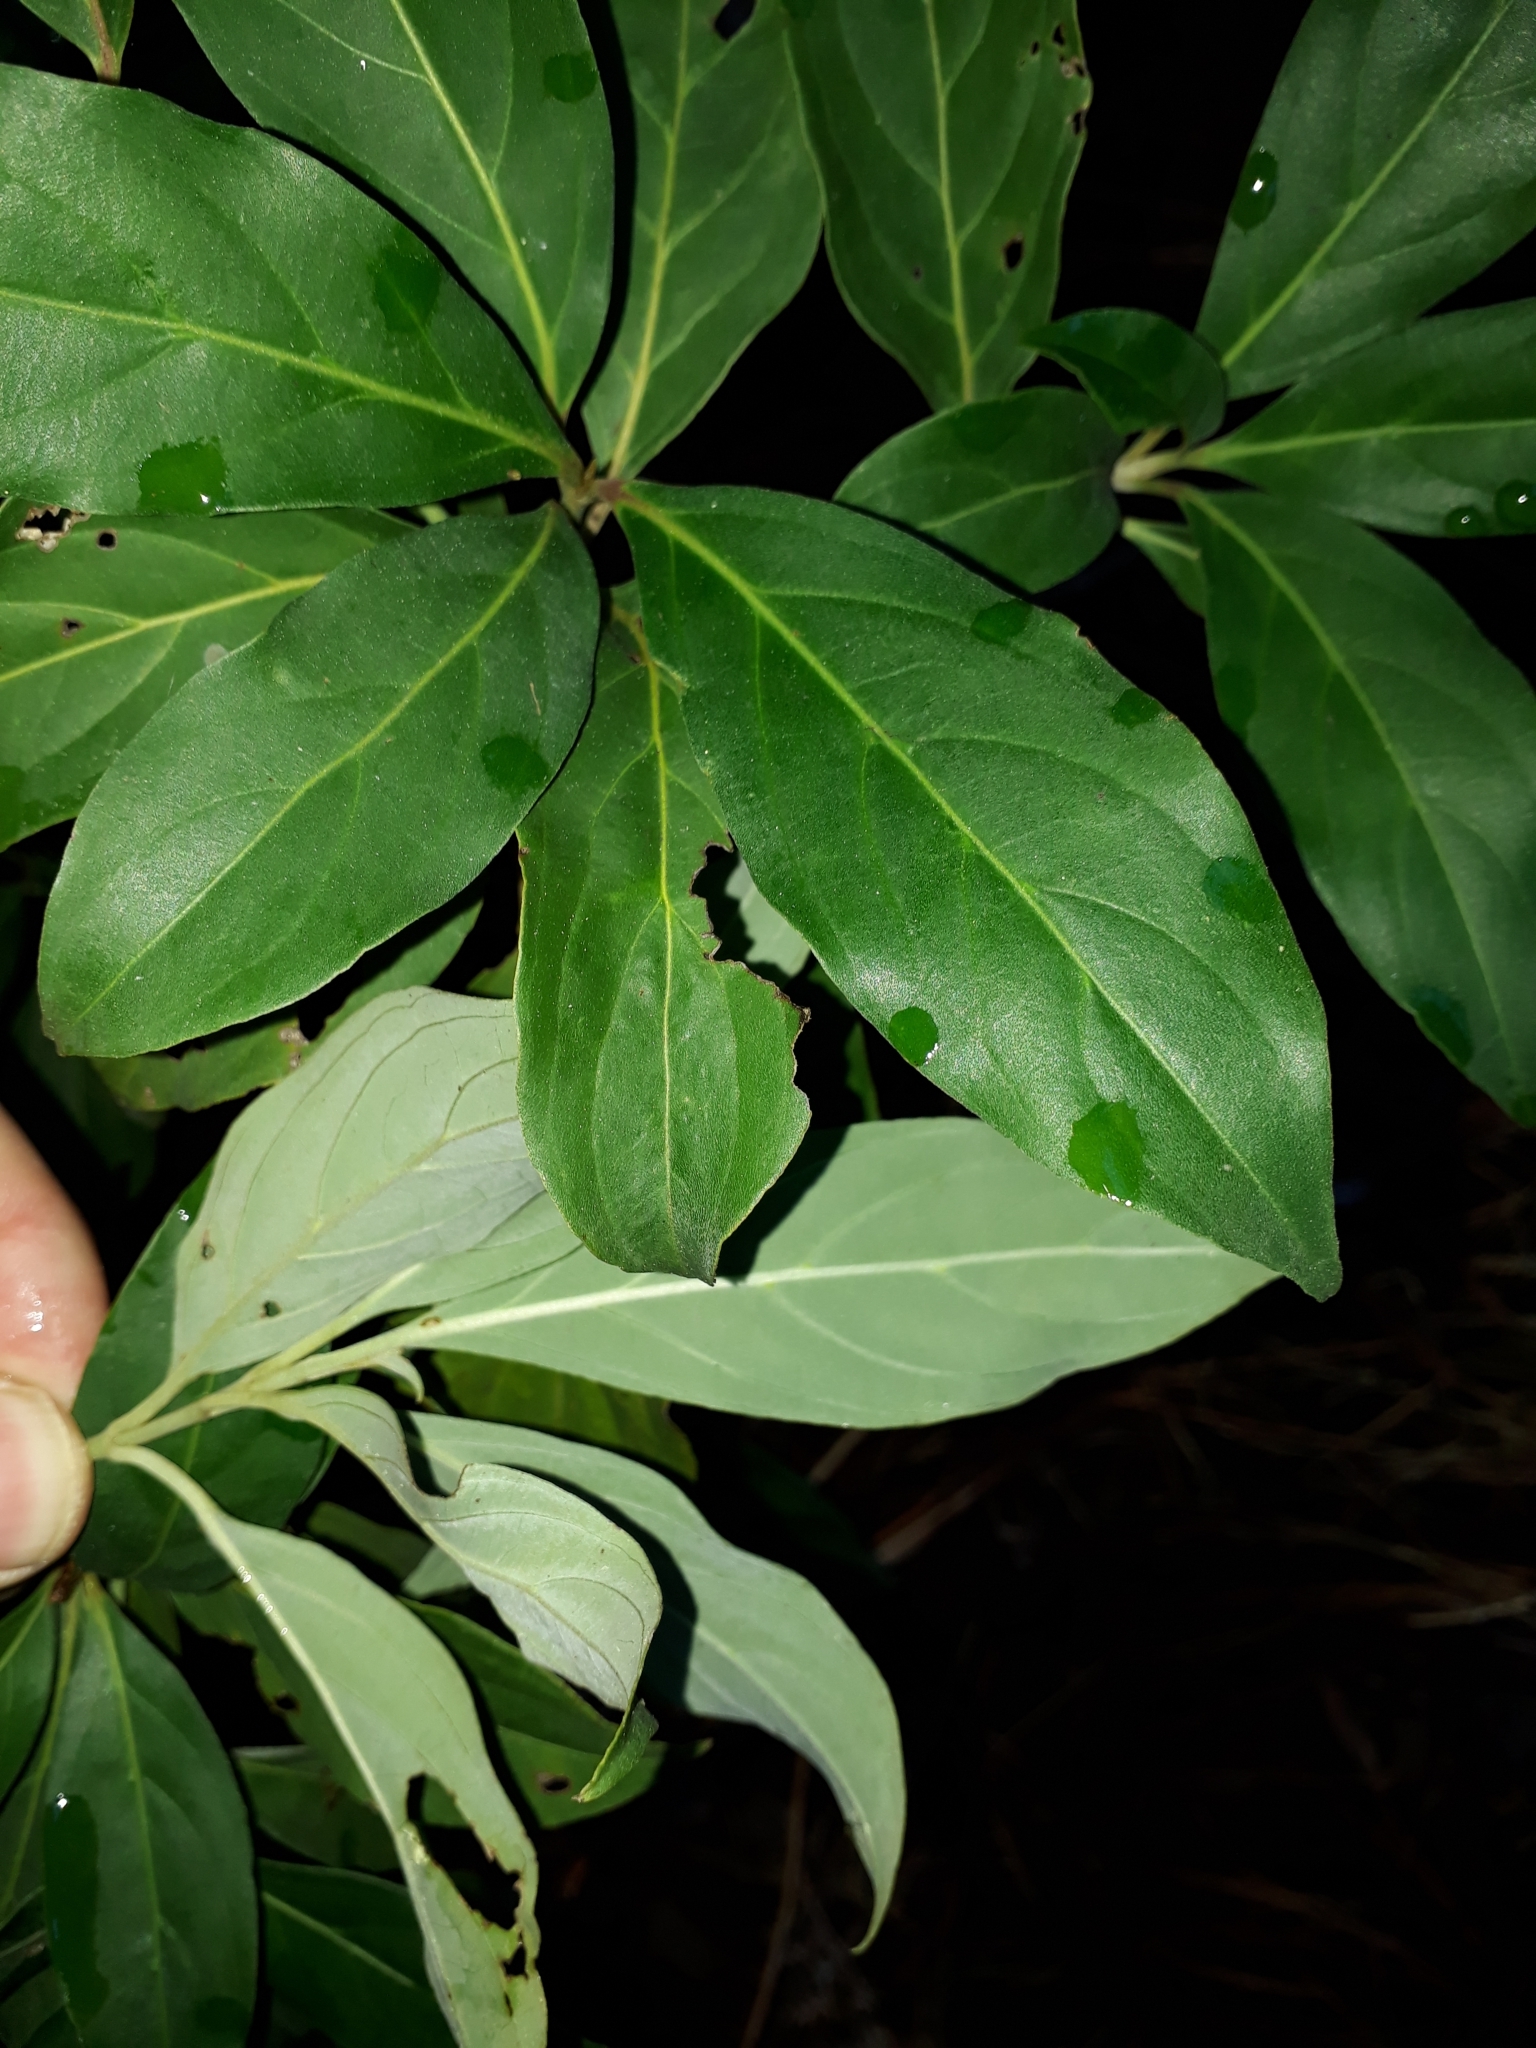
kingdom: Plantae
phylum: Tracheophyta
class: Magnoliopsida
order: Cornales
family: Cornaceae
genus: Cornus
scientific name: Cornus capitata
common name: Bentham's cornel
